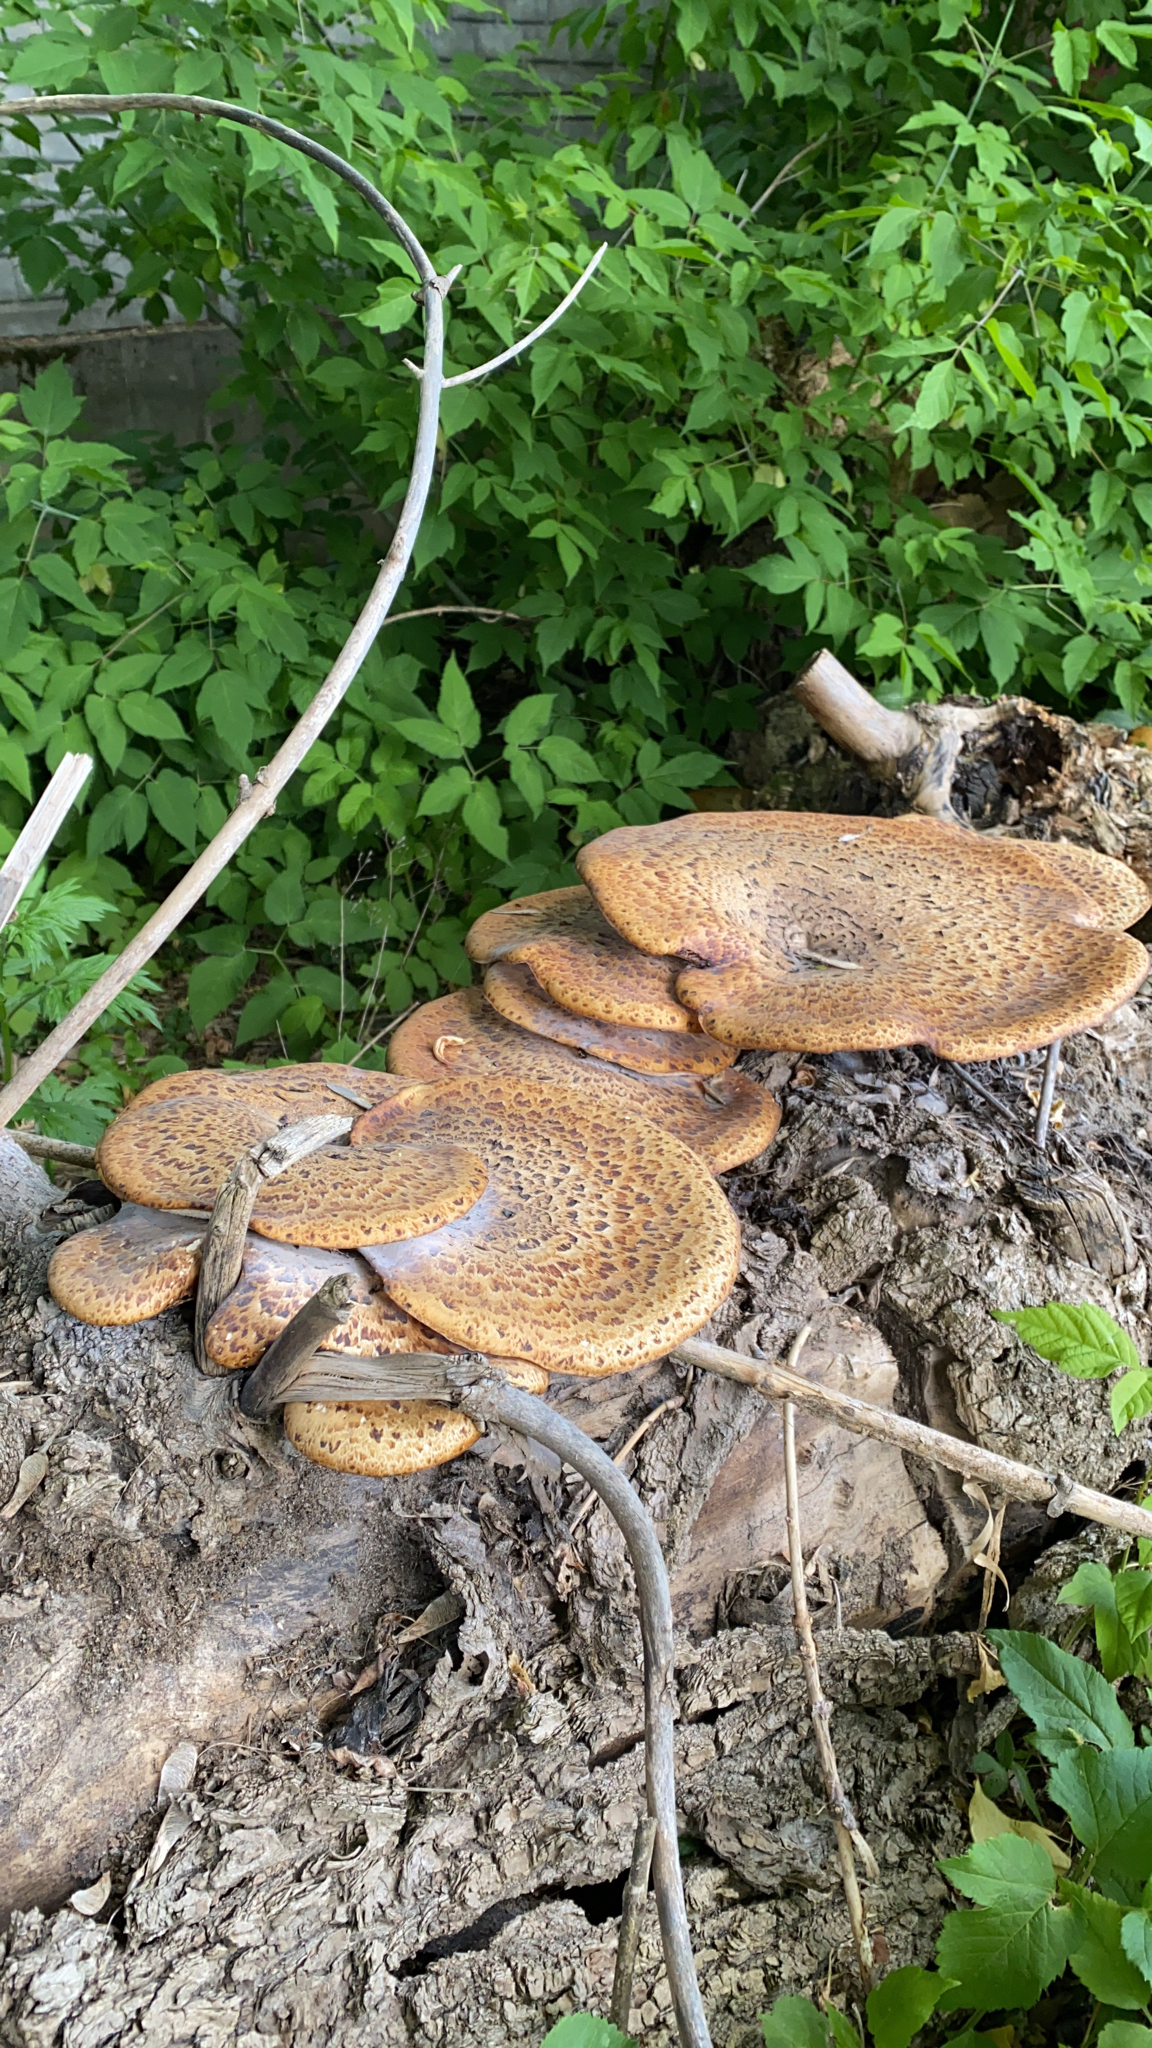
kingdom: Fungi
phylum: Basidiomycota
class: Agaricomycetes
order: Polyporales
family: Polyporaceae
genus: Cerioporus
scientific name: Cerioporus squamosus
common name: Dryad's saddle
